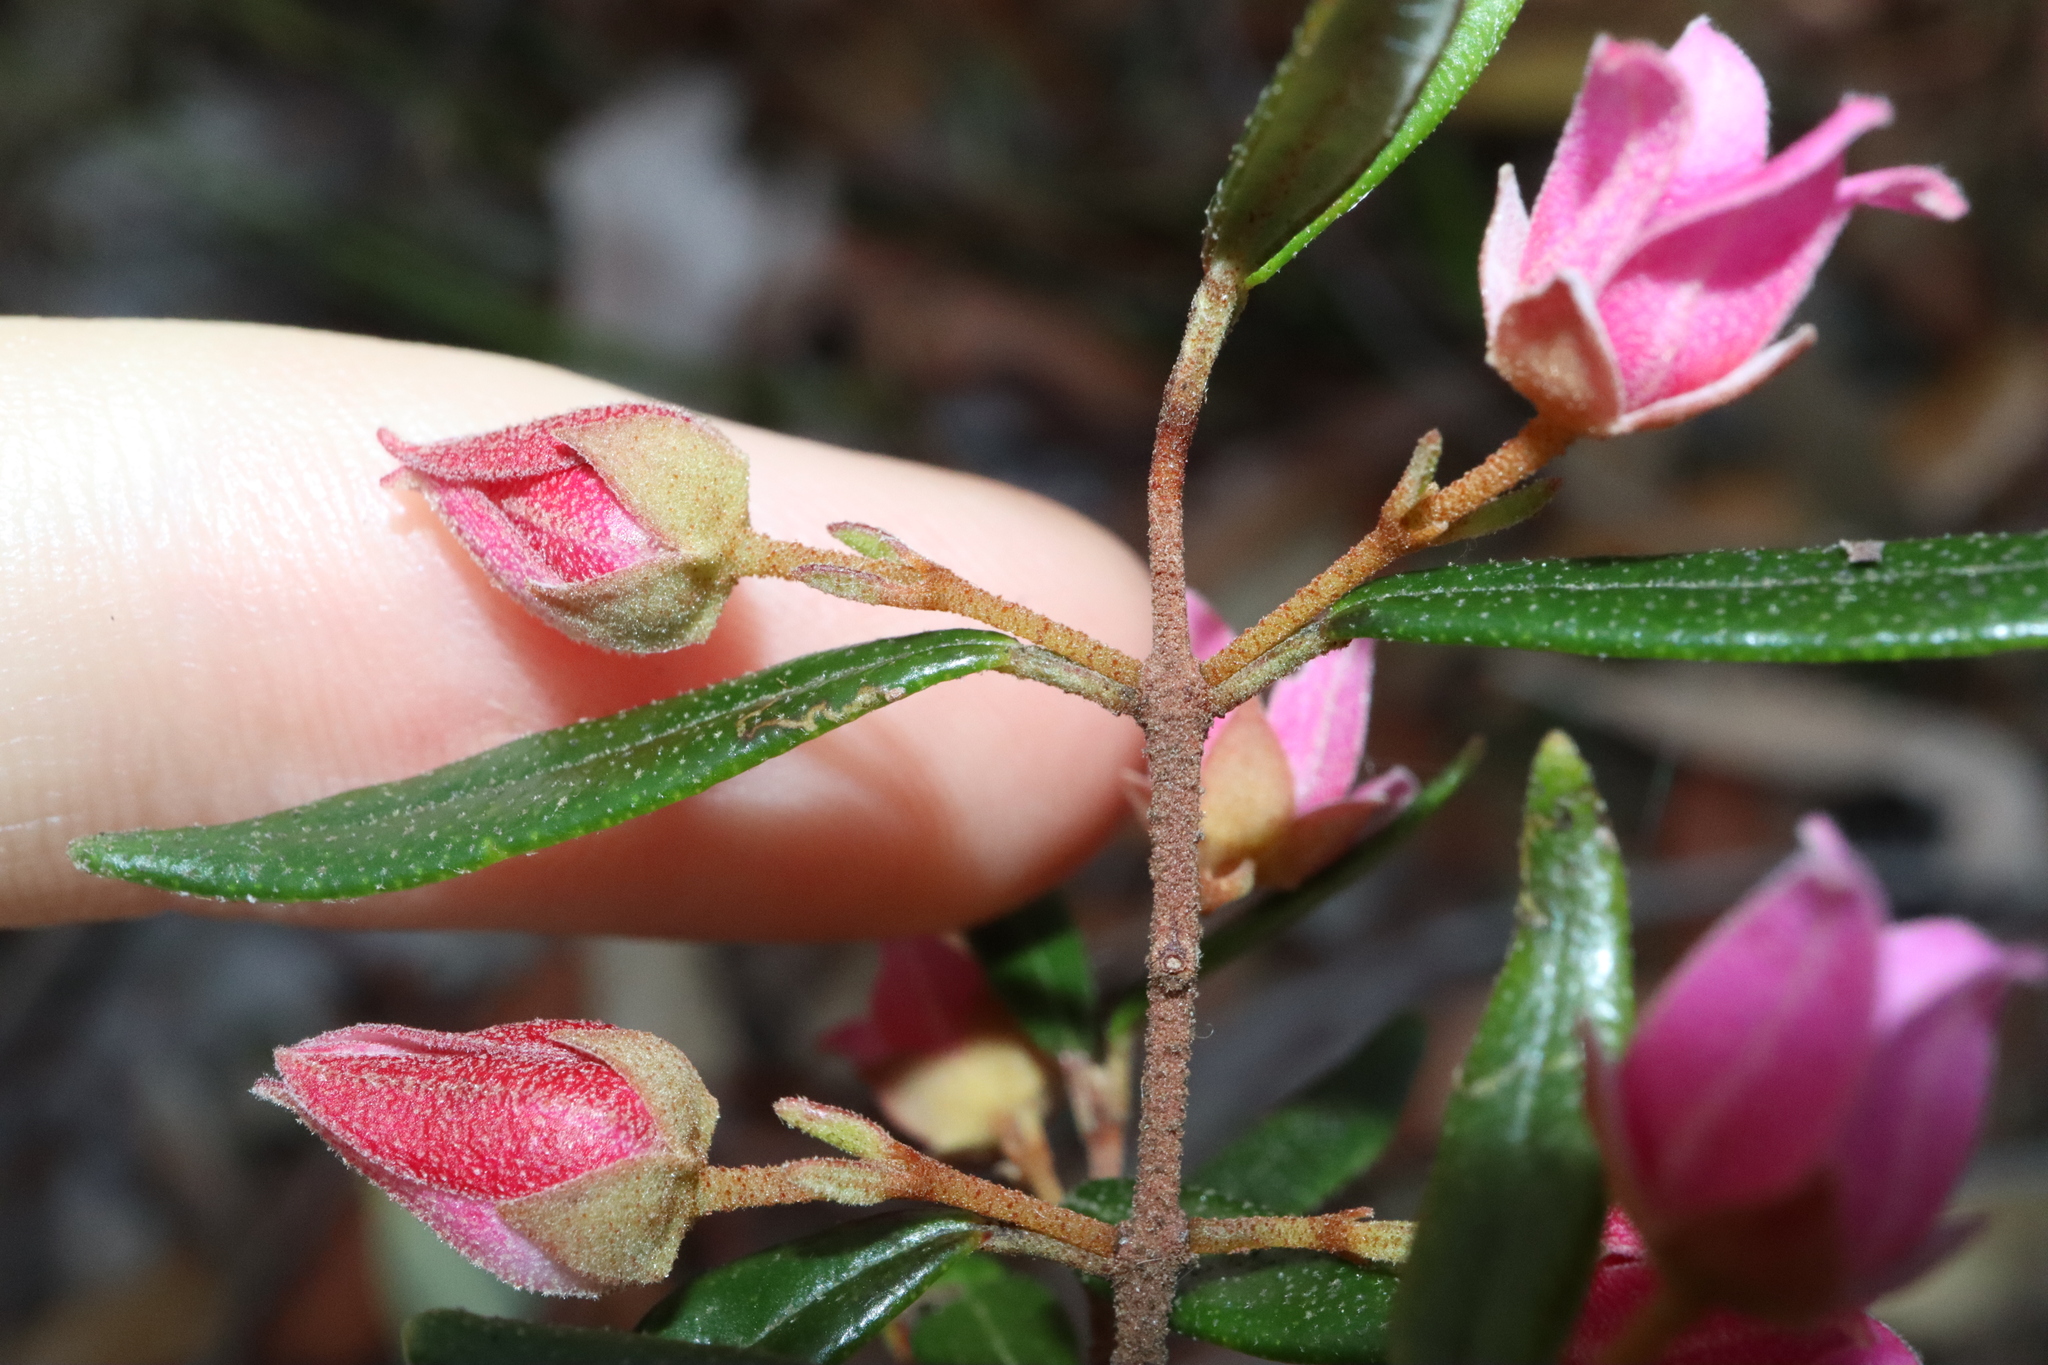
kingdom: Plantae
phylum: Tracheophyta
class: Magnoliopsida
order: Sapindales
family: Rutaceae
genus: Boronia
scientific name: Boronia ledifolia
